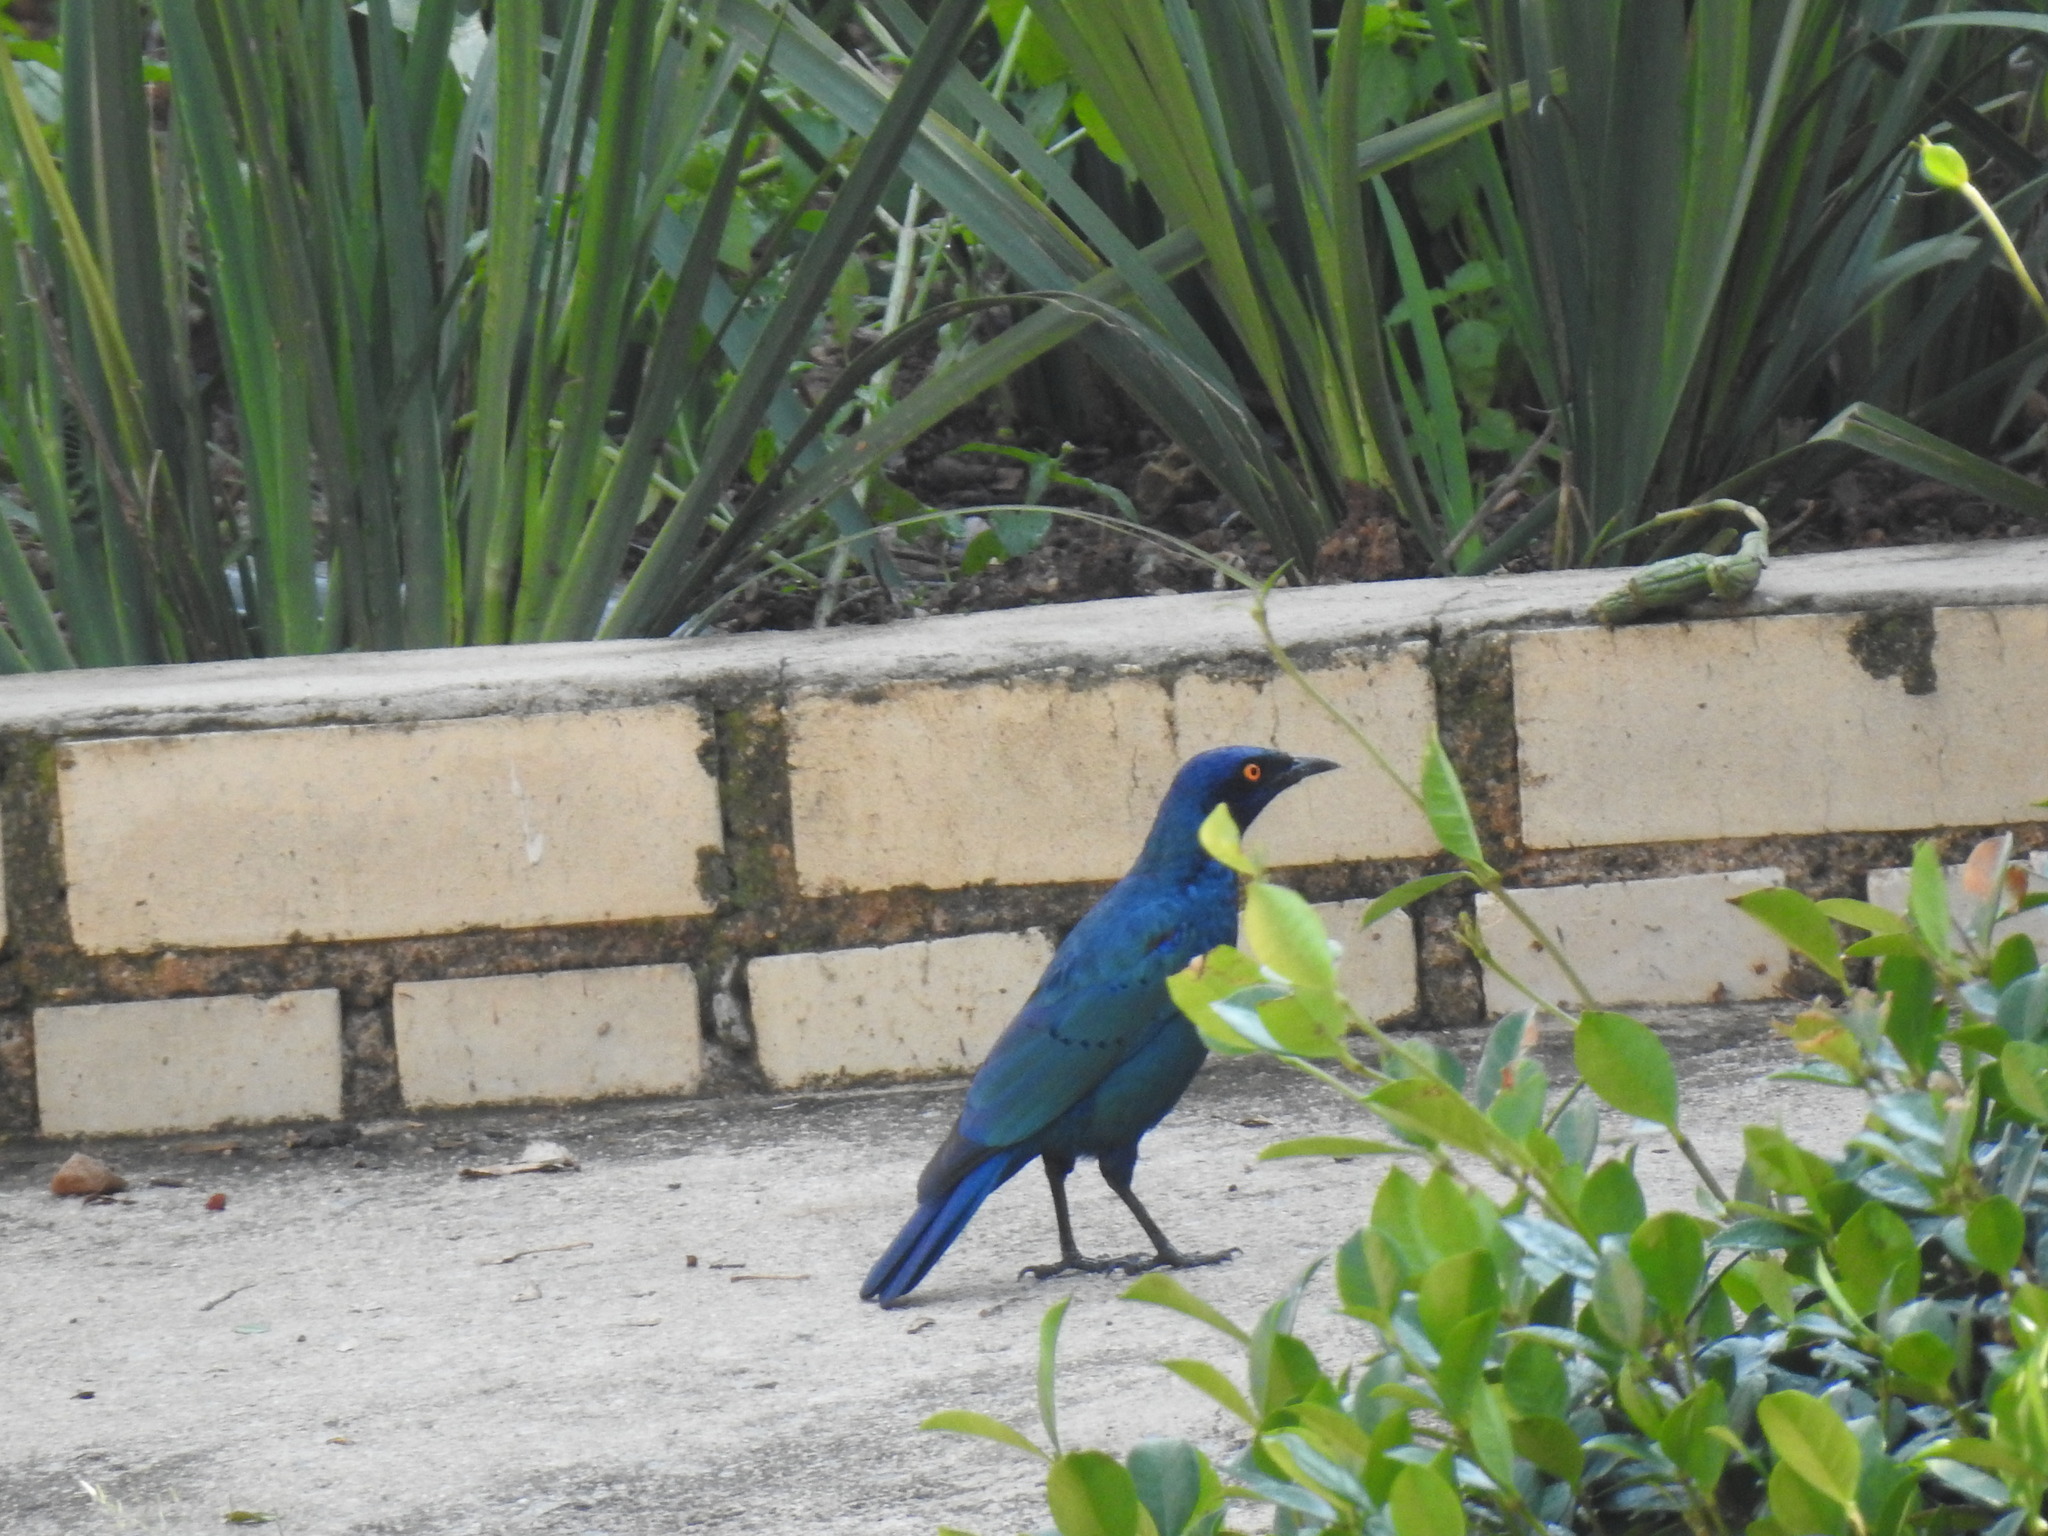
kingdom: Animalia
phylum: Chordata
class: Aves
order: Passeriformes
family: Sturnidae
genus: Lamprotornis
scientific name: Lamprotornis nitens
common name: Cape starling
